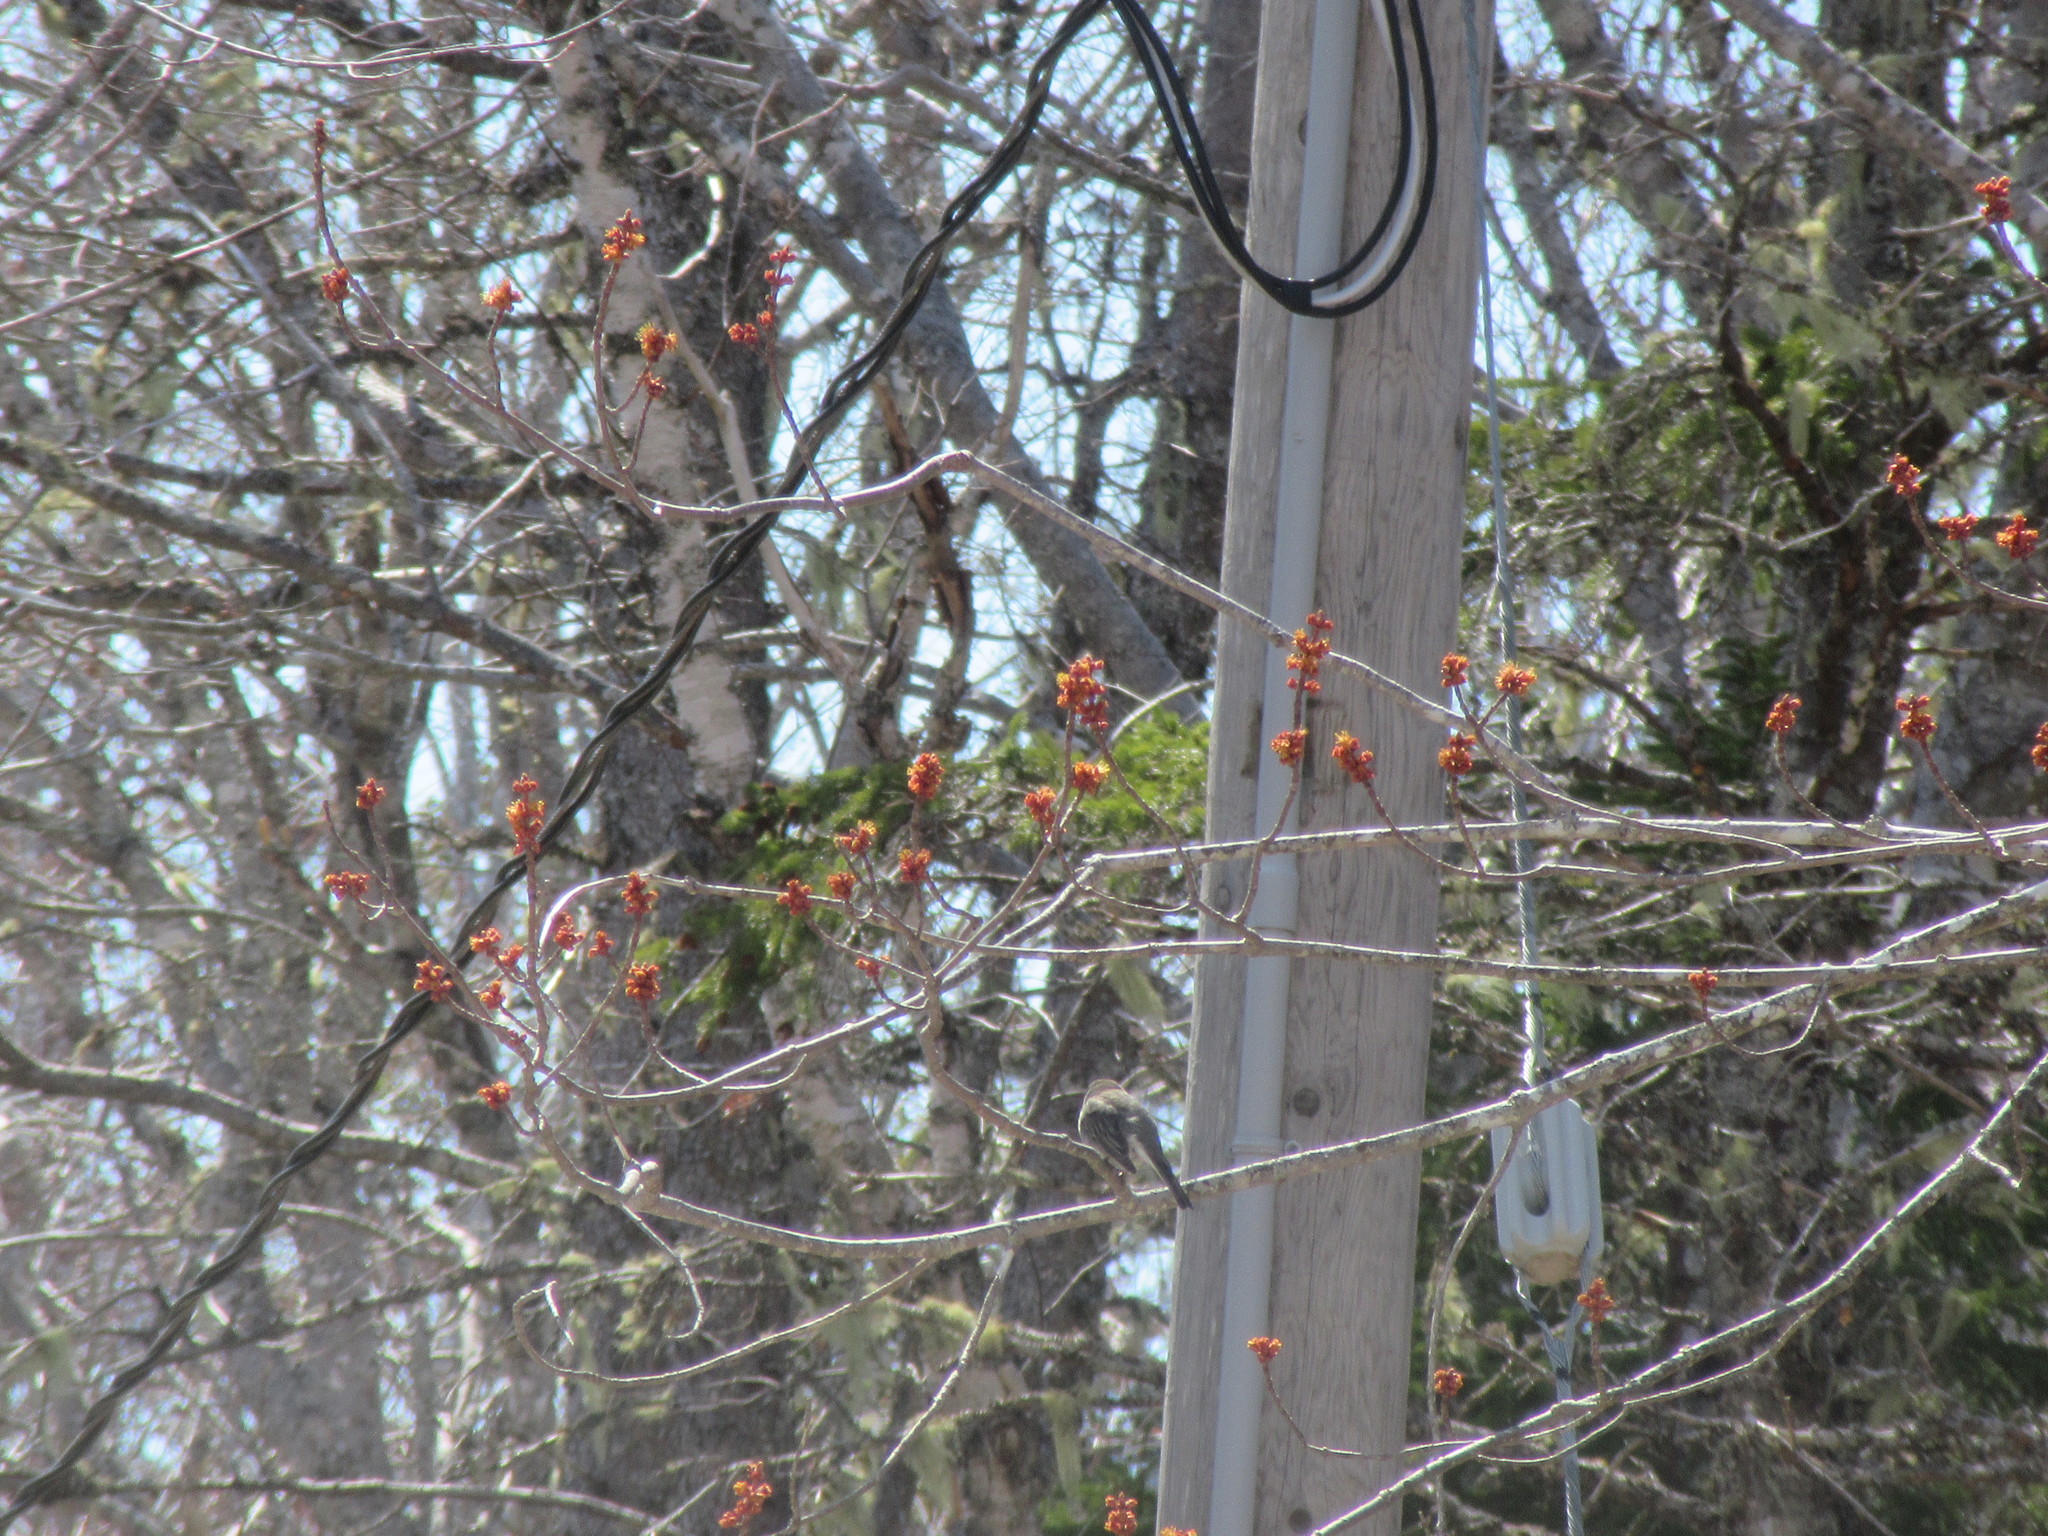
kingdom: Plantae
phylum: Tracheophyta
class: Magnoliopsida
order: Sapindales
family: Sapindaceae
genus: Acer
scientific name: Acer rubrum
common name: Red maple
